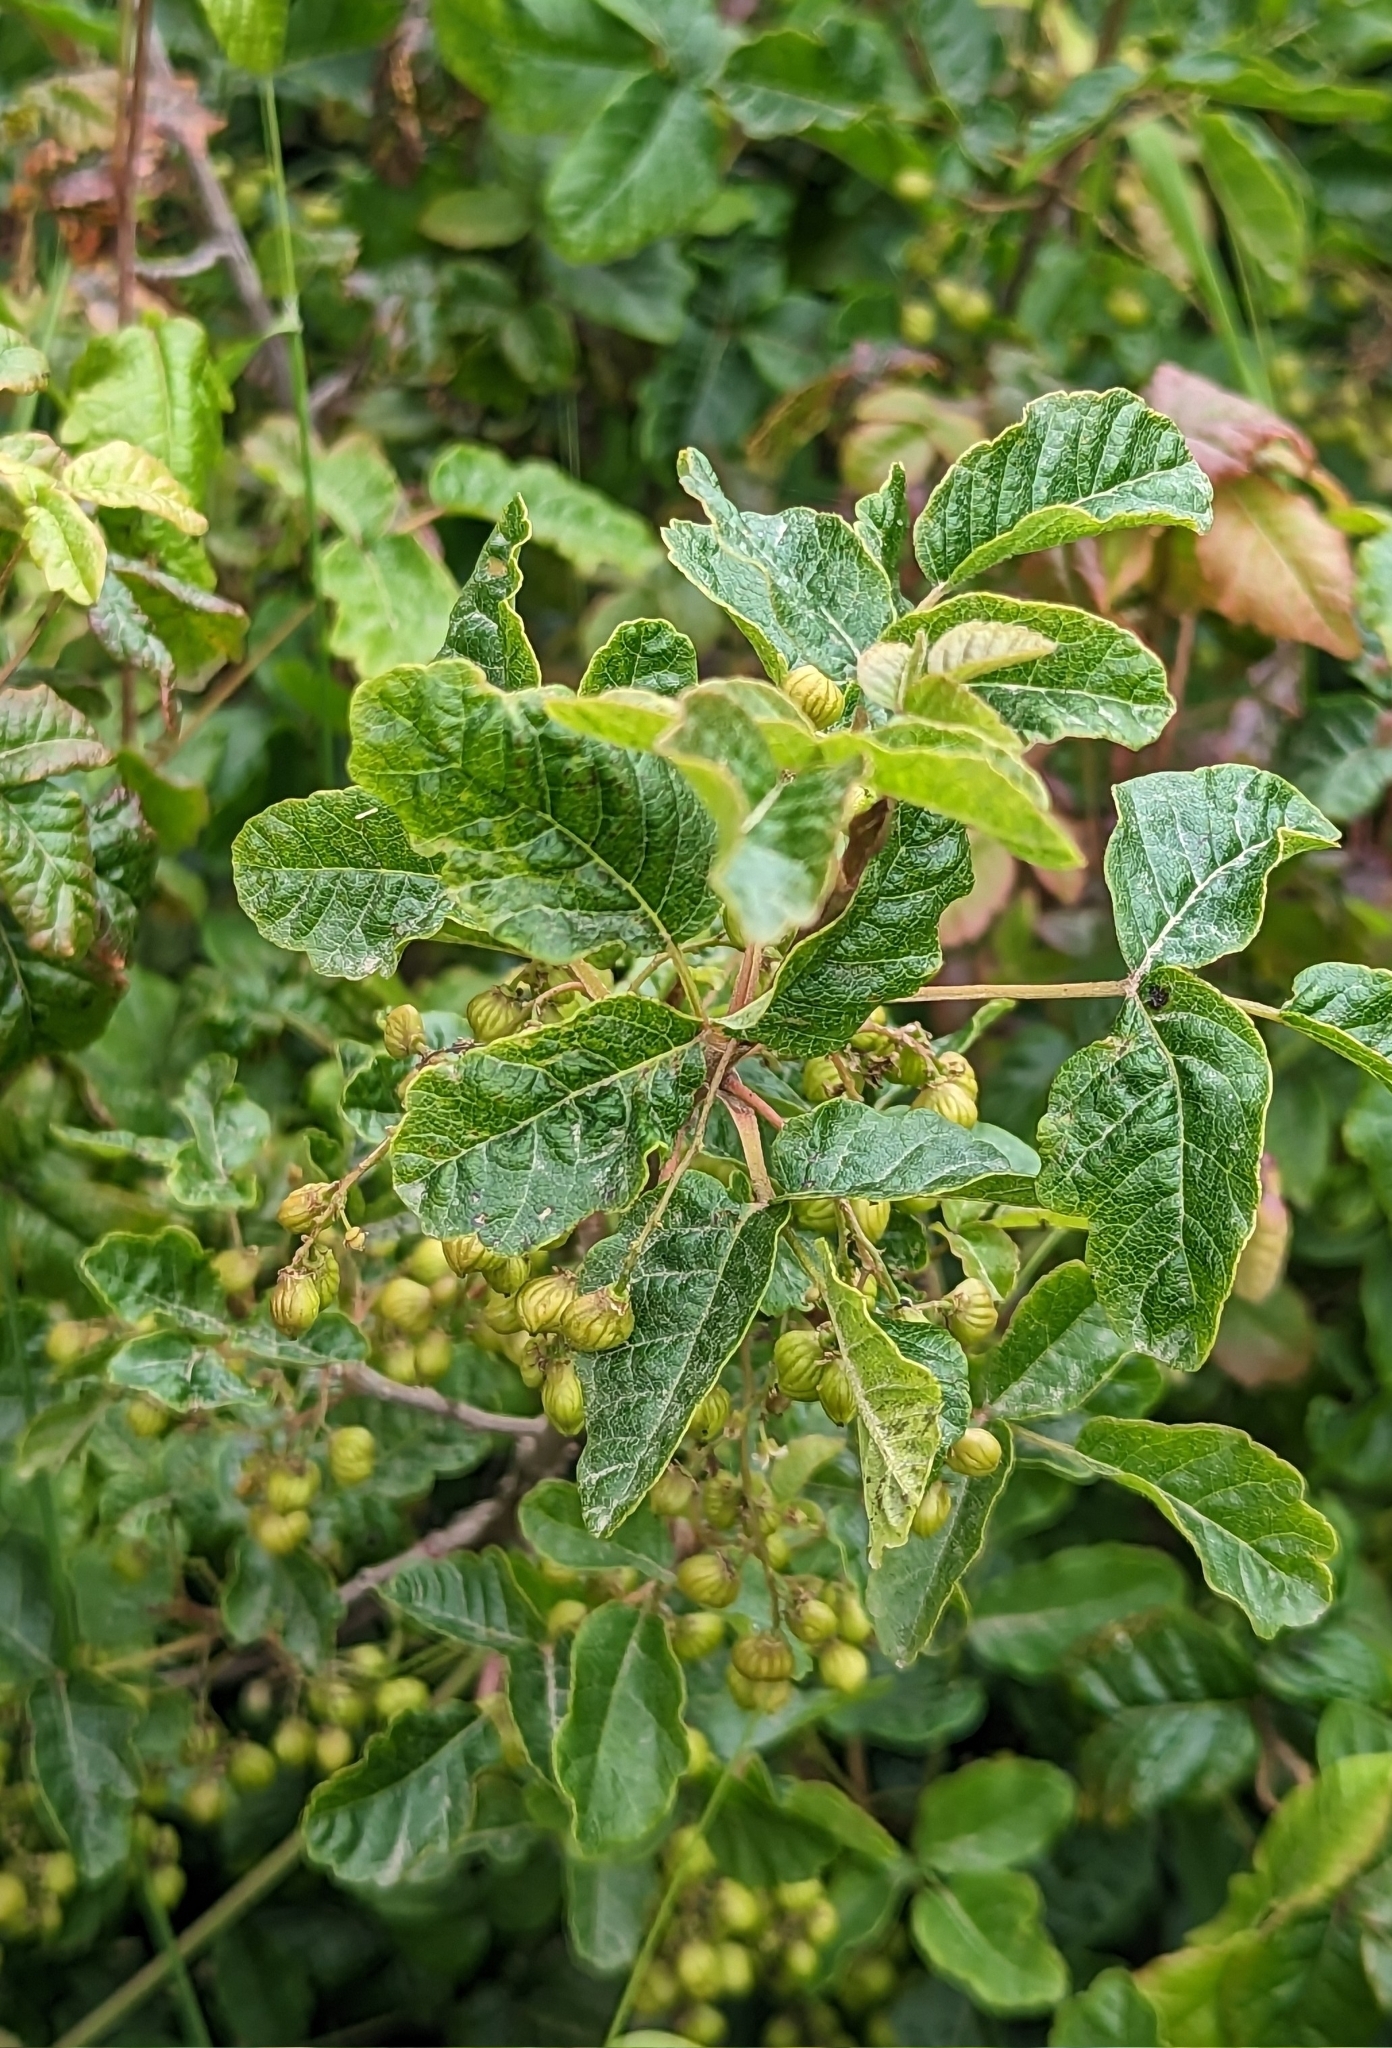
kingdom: Plantae
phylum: Tracheophyta
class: Magnoliopsida
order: Sapindales
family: Anacardiaceae
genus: Toxicodendron
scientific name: Toxicodendron diversilobum
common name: Pacific poison-oak
